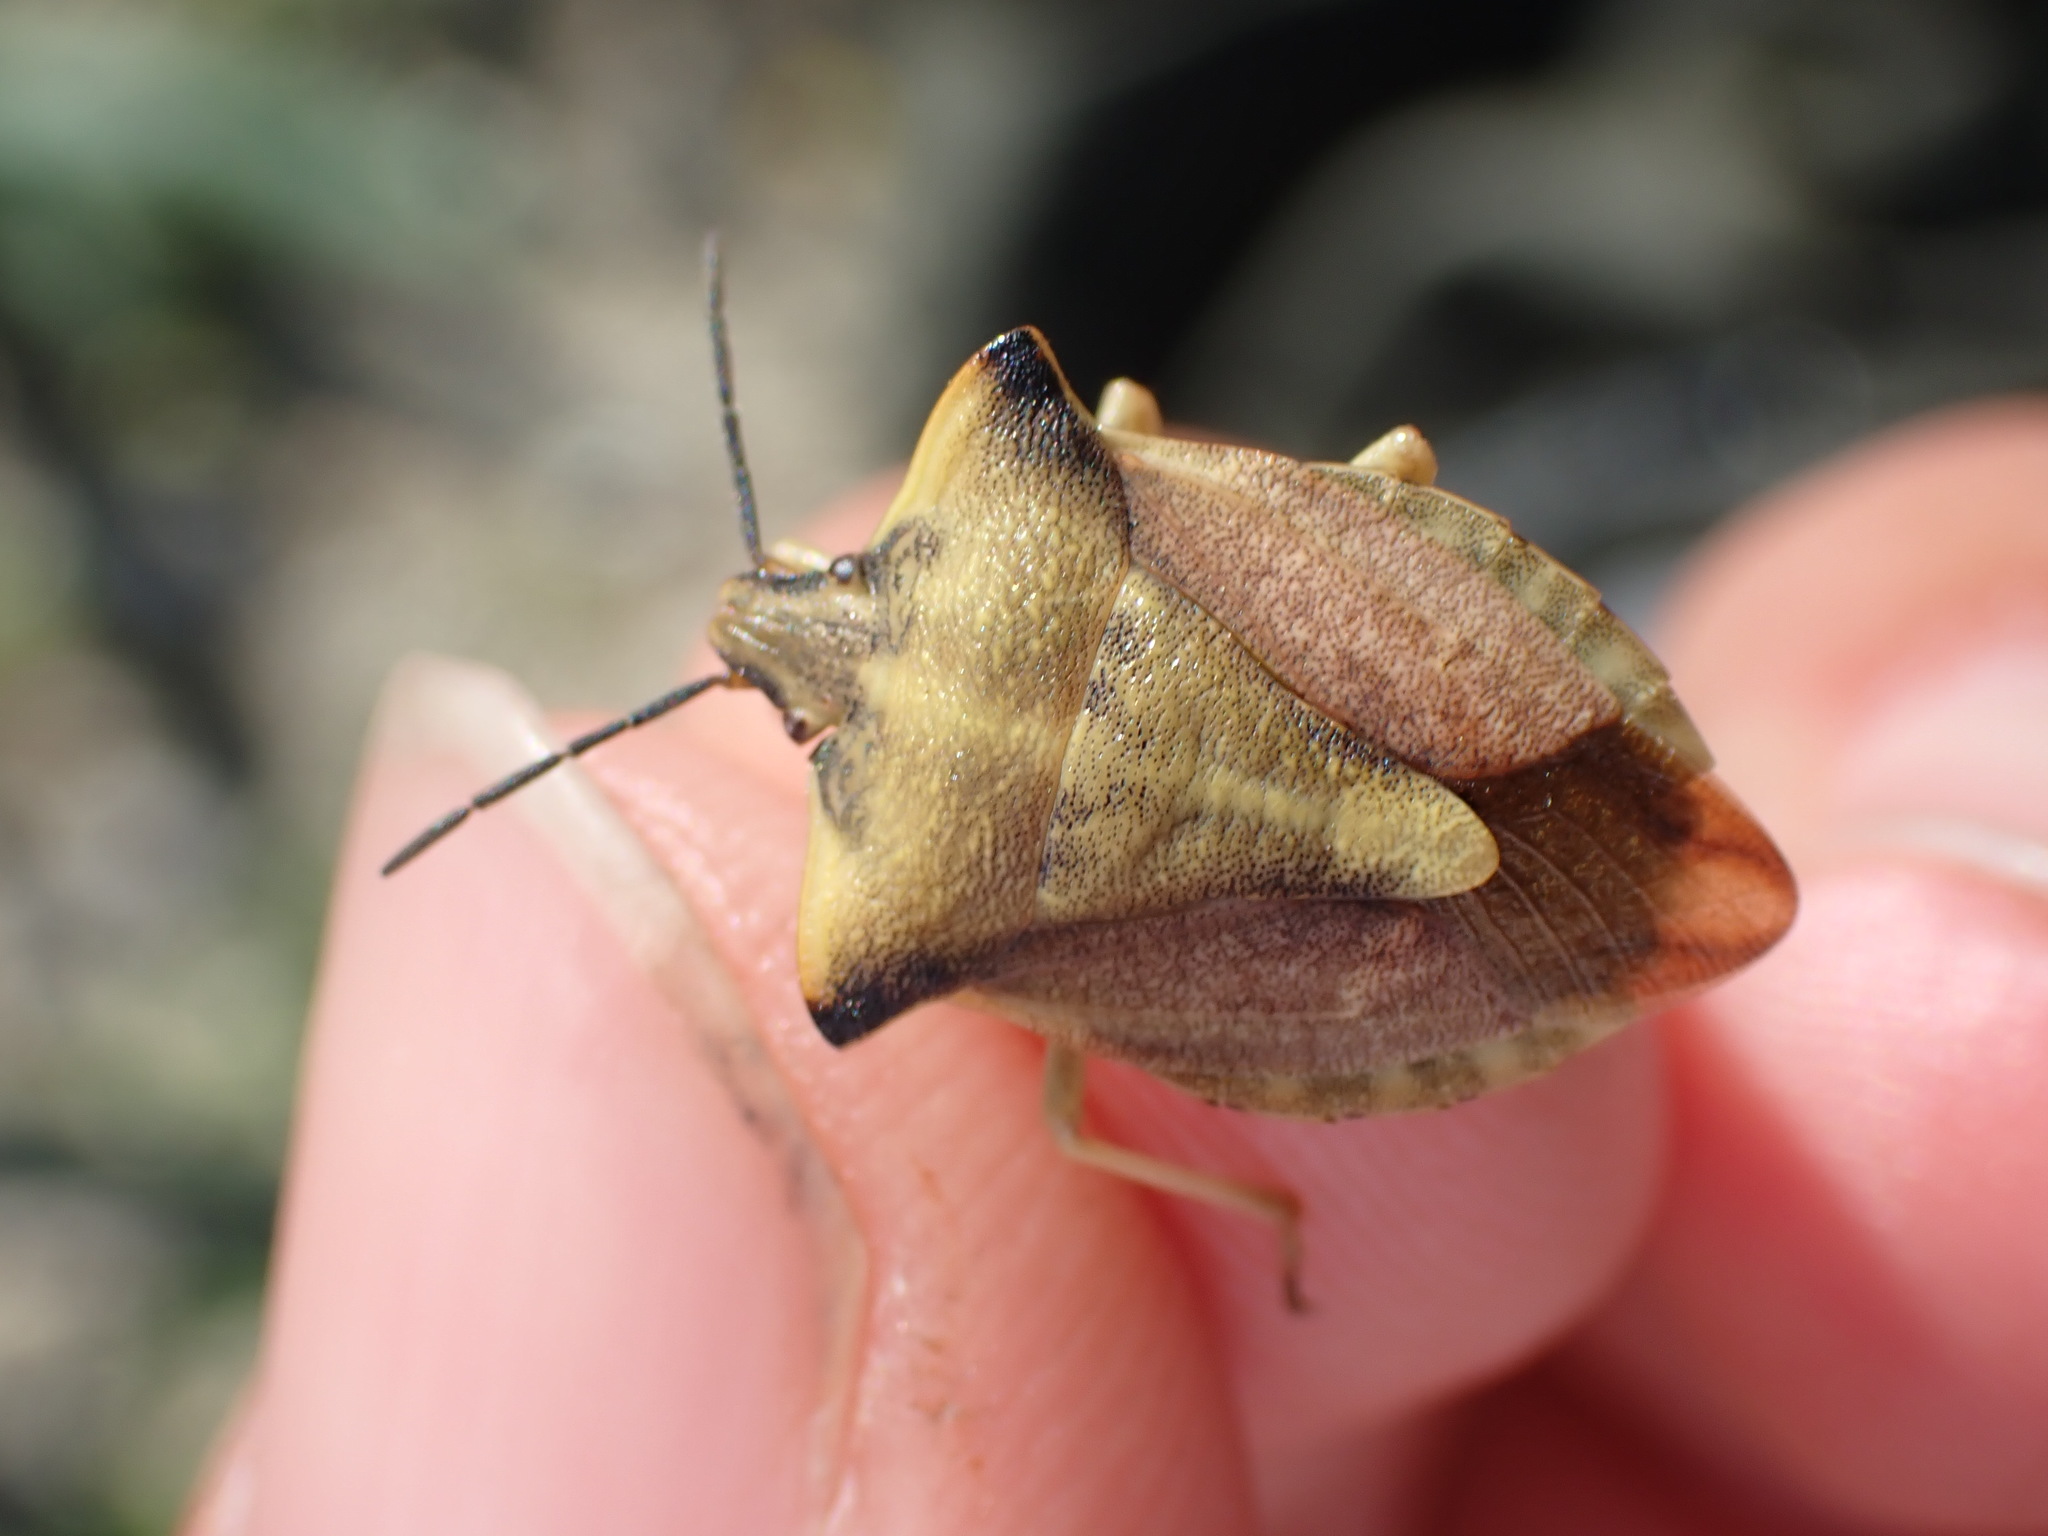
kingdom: Animalia
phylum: Arthropoda
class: Insecta
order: Hemiptera
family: Pentatomidae
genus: Carpocoris
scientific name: Carpocoris fuscispinus
